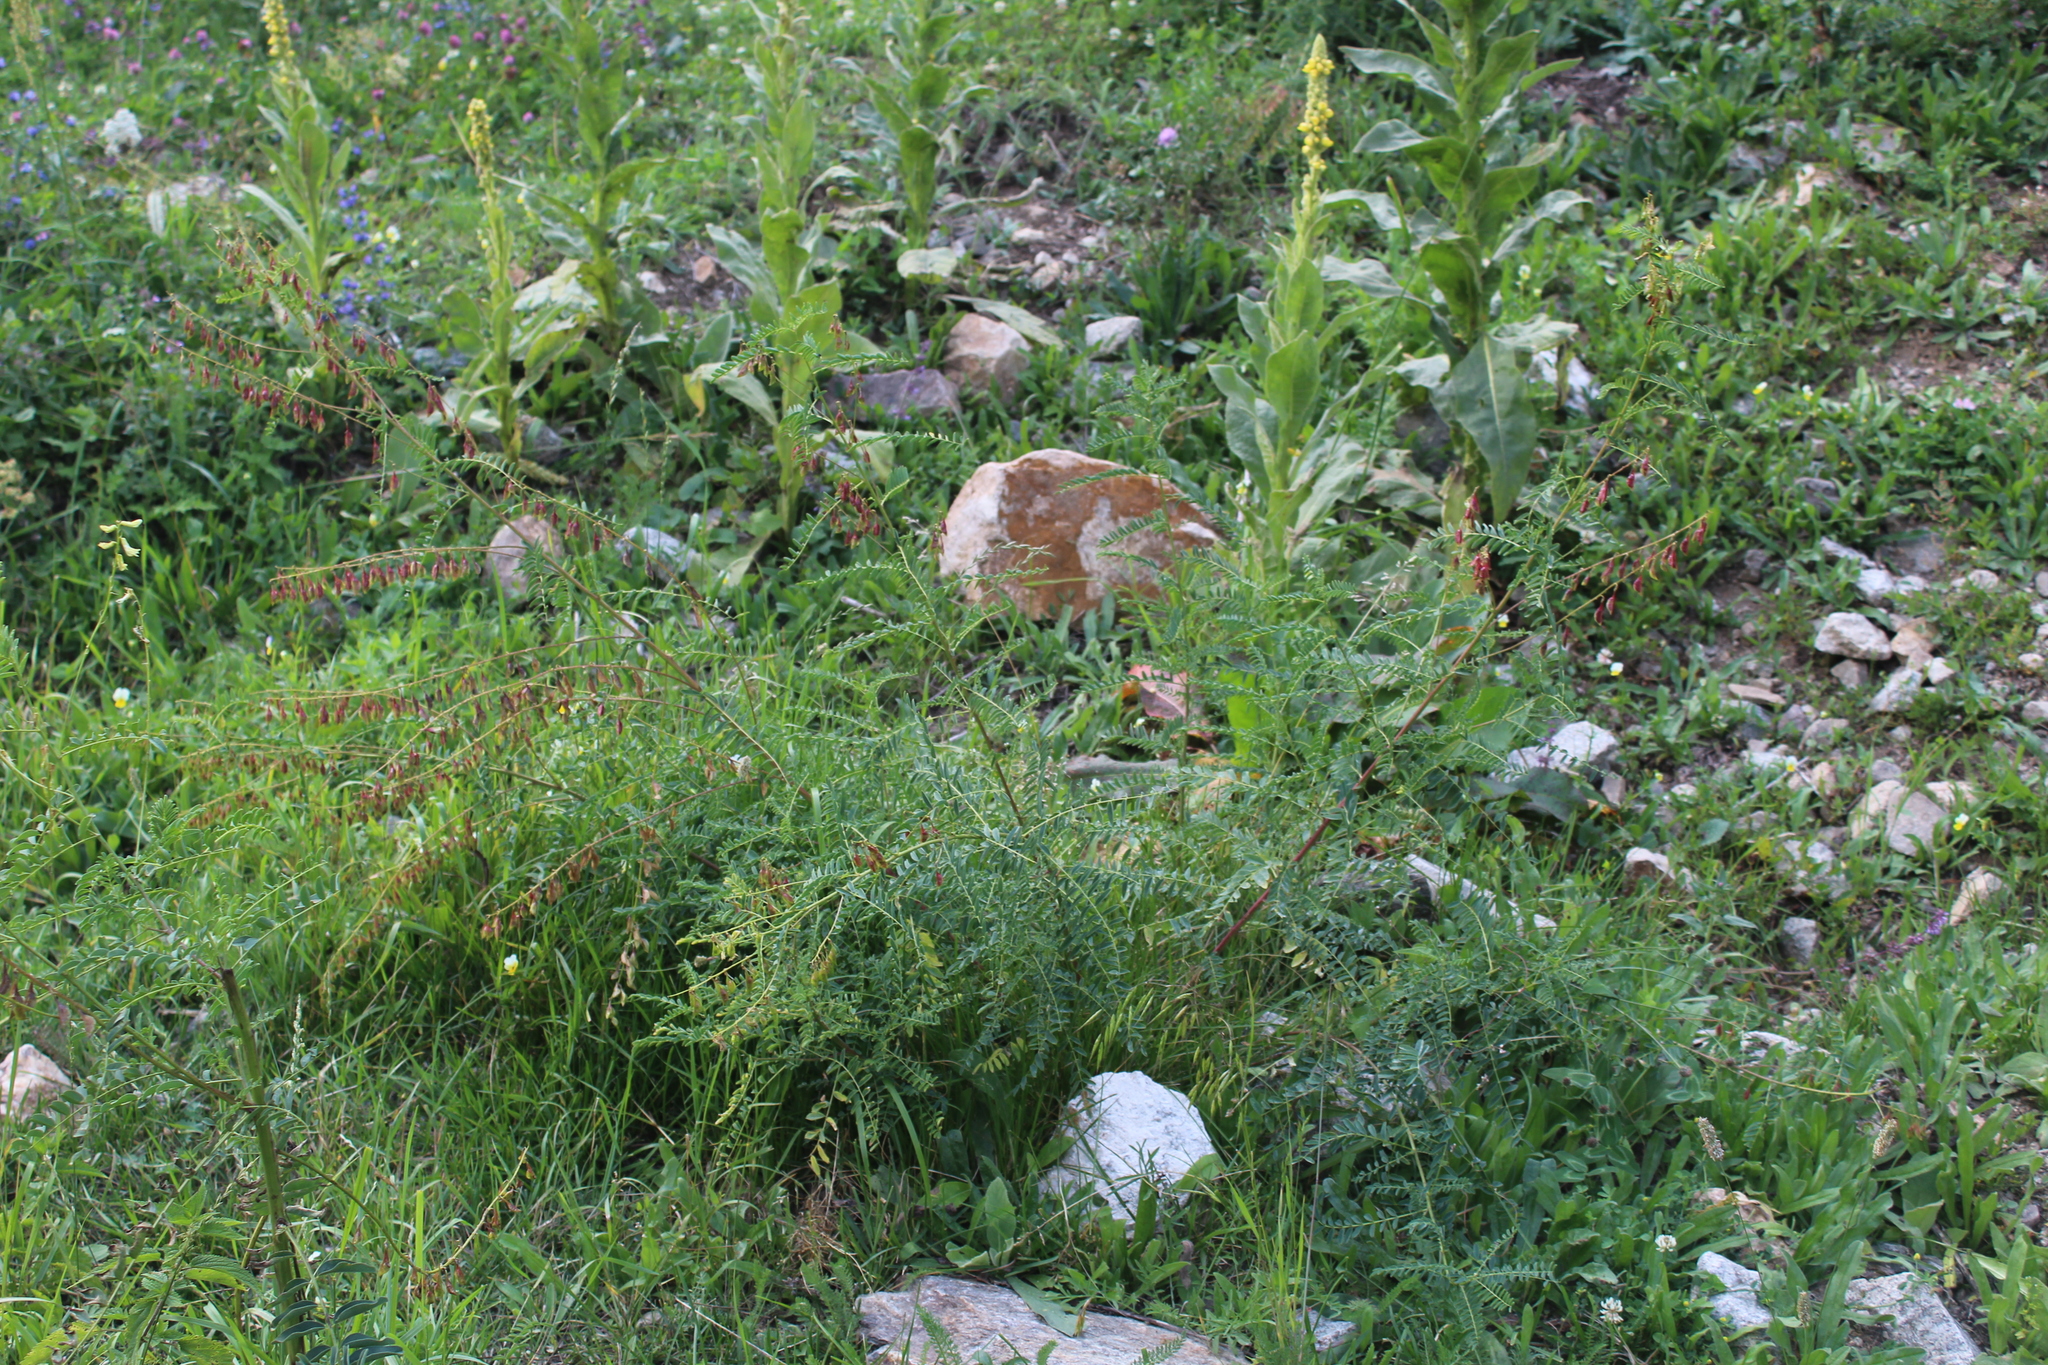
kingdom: Plantae
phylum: Tracheophyta
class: Magnoliopsida
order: Fabales
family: Fabaceae
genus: Astragalus
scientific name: Astragalus galegiformis
